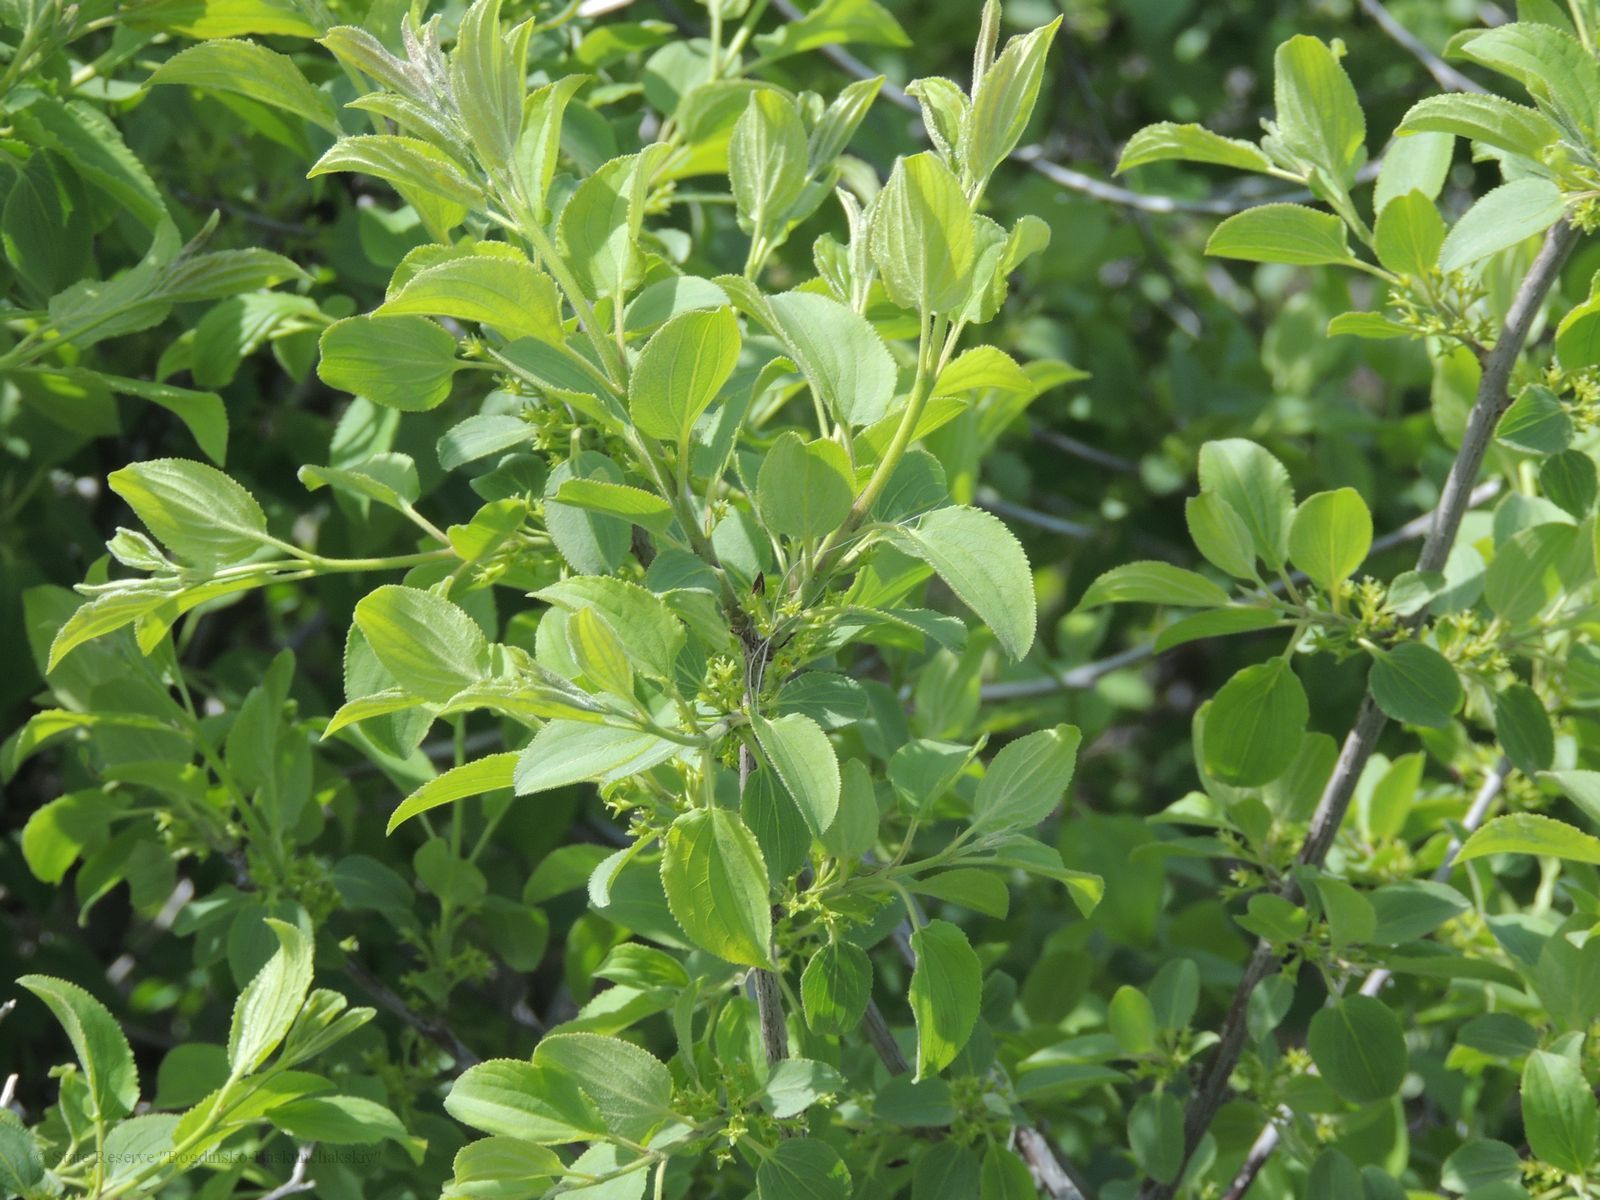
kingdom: Plantae
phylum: Tracheophyta
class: Magnoliopsida
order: Rosales
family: Rhamnaceae
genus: Rhamnus
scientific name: Rhamnus cathartica
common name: Common buckthorn
